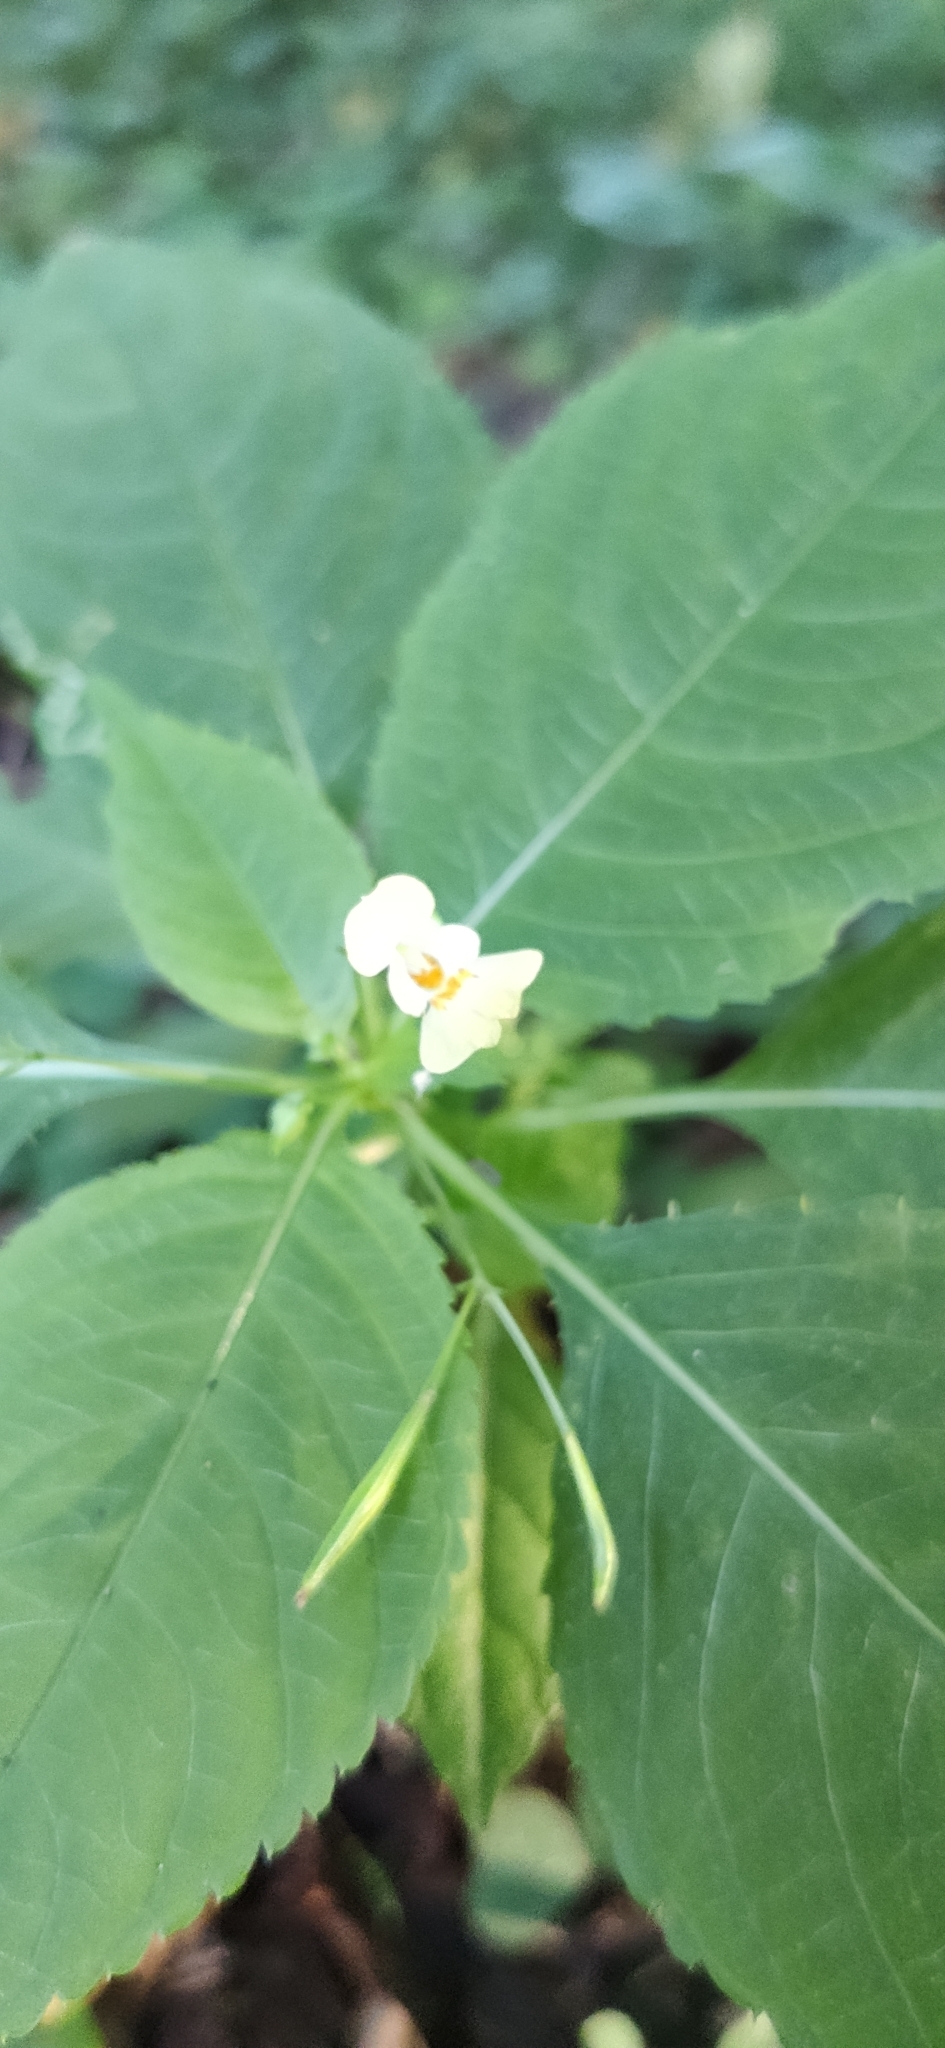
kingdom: Plantae
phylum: Tracheophyta
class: Magnoliopsida
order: Ericales
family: Balsaminaceae
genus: Impatiens
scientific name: Impatiens parviflora
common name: Small balsam
